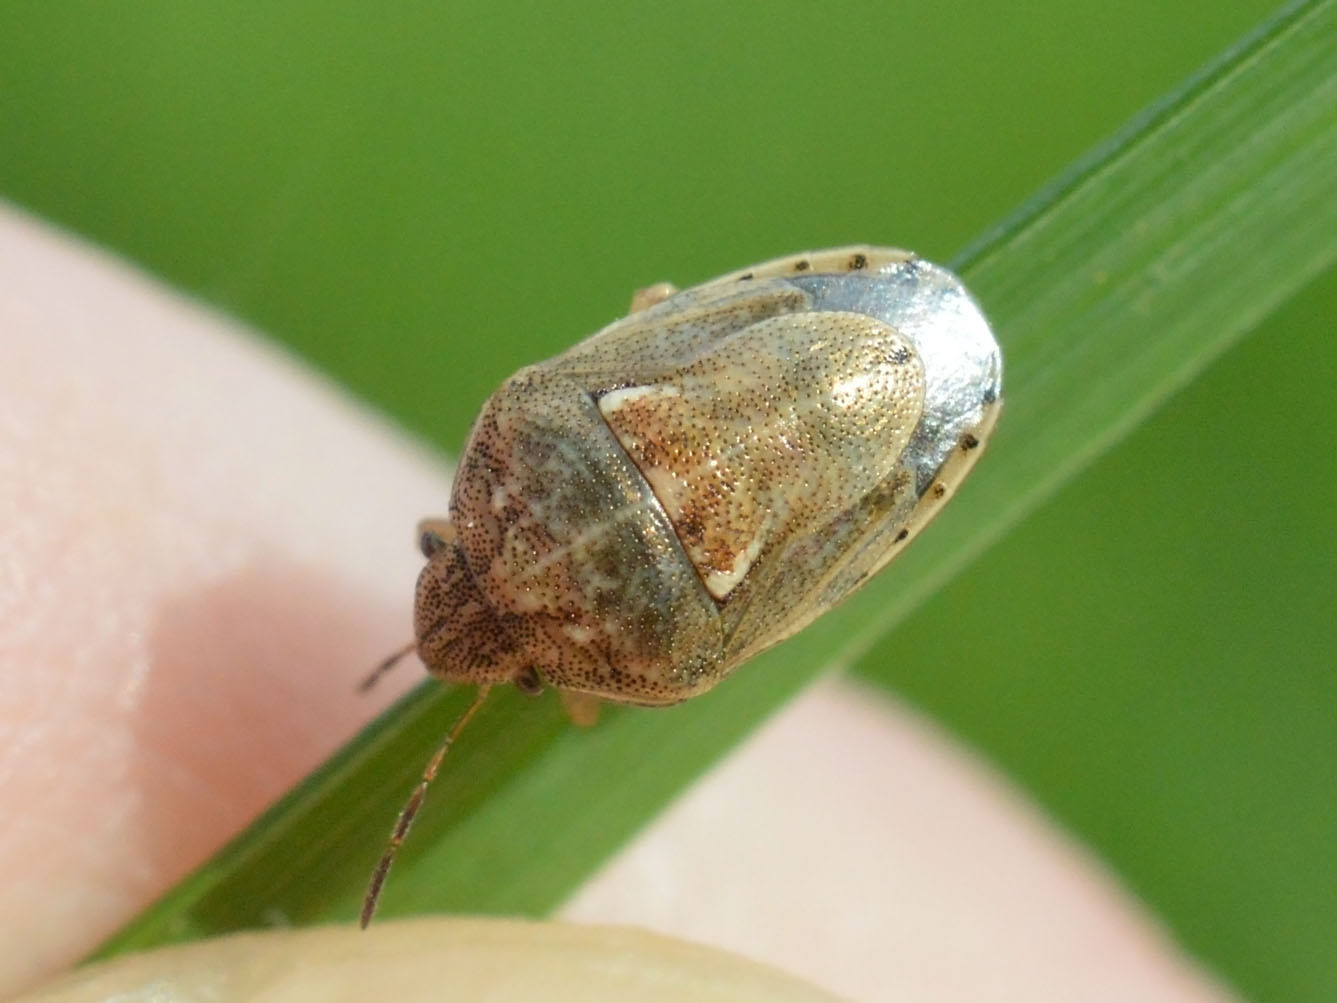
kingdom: Animalia
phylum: Arthropoda
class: Insecta
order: Hemiptera
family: Pentatomidae
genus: Neottiglossa
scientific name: Neottiglossa leporina
